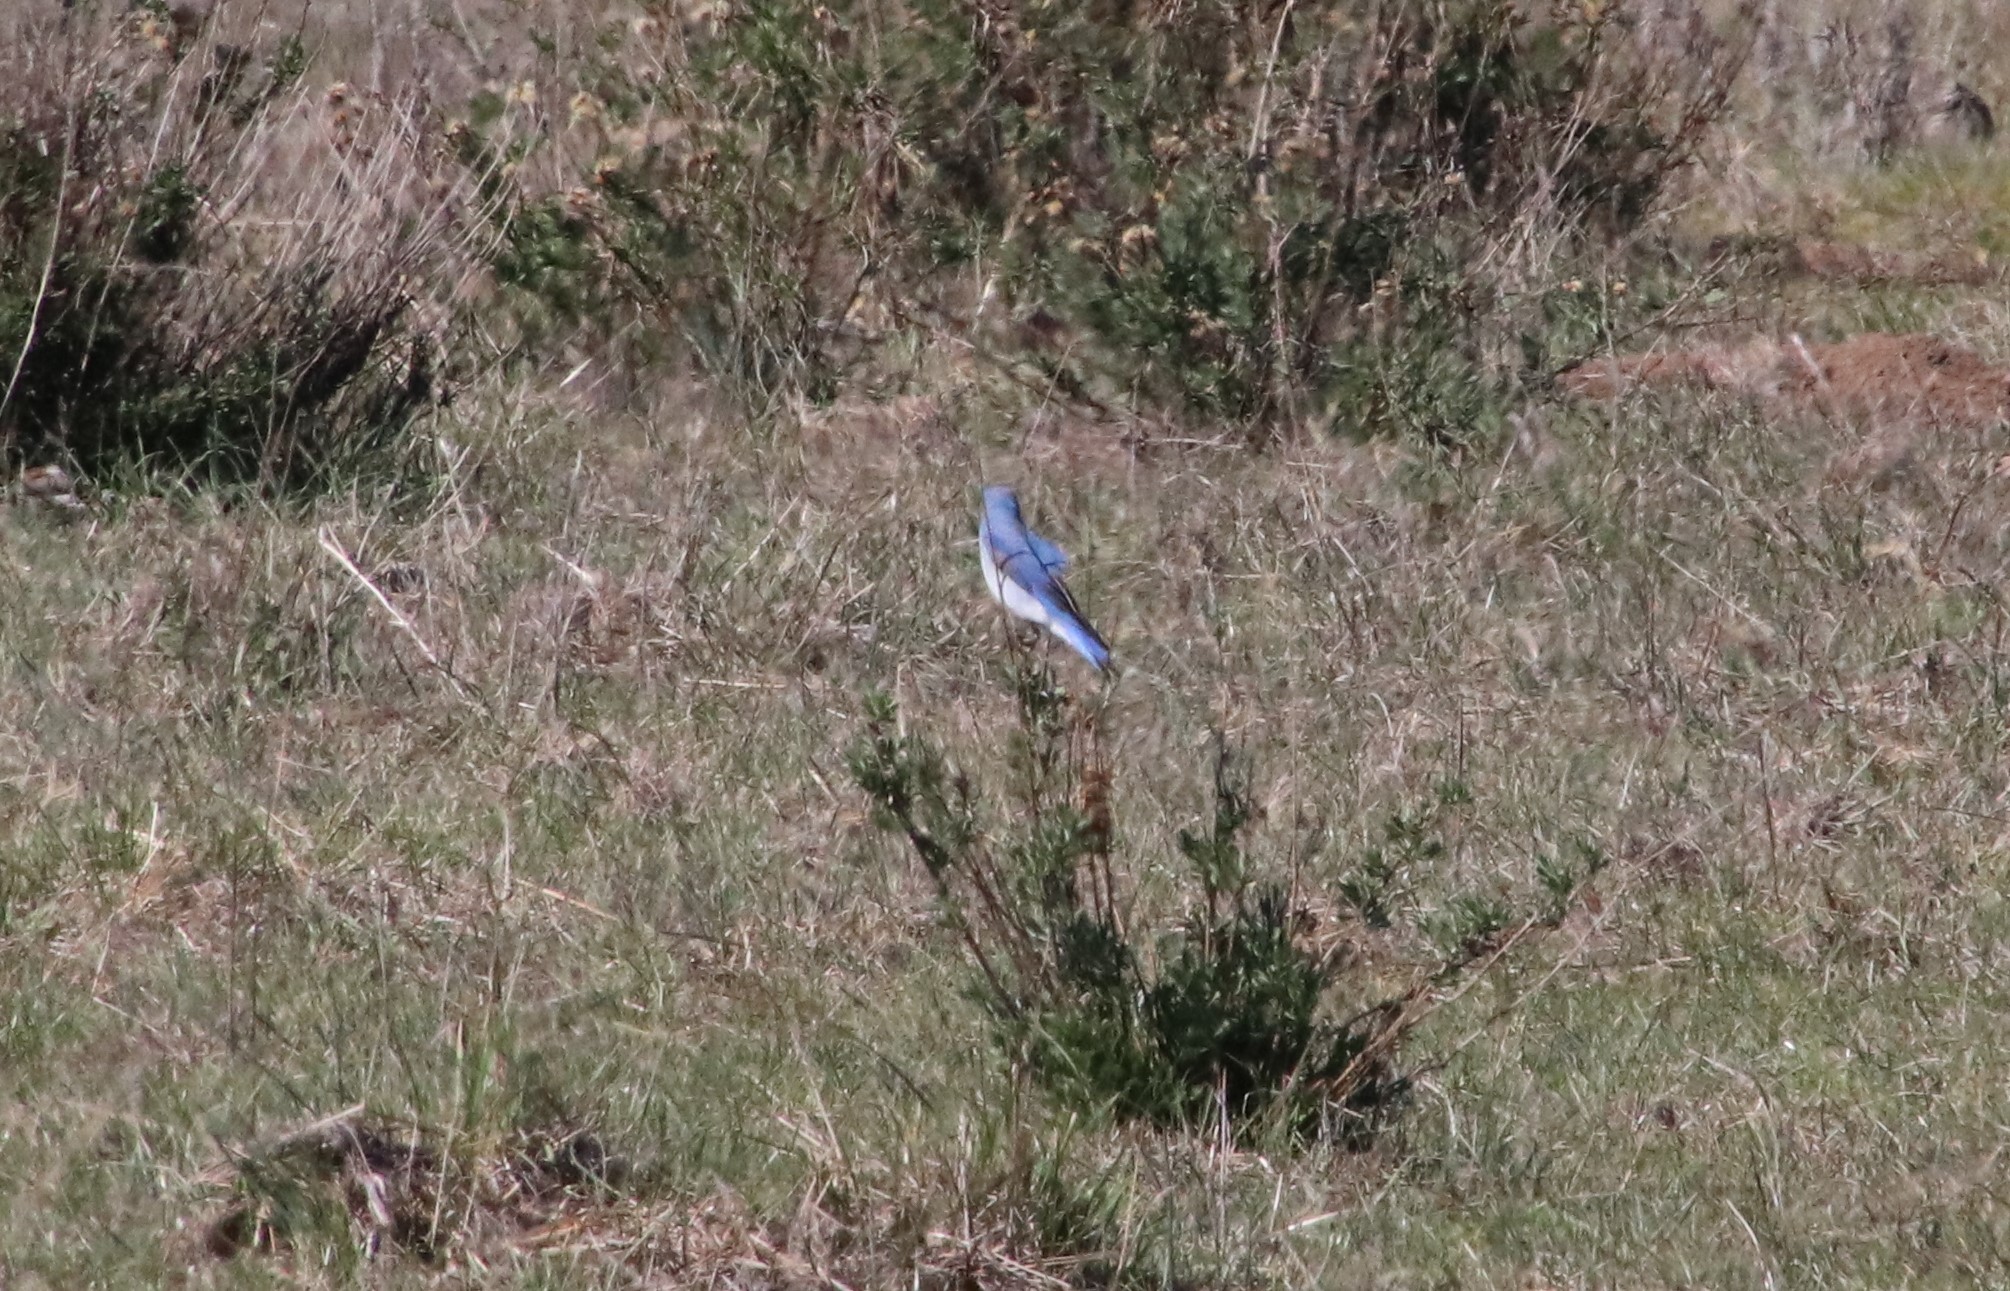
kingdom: Animalia
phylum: Chordata
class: Aves
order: Passeriformes
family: Turdidae
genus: Sialia
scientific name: Sialia currucoides
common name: Mountain bluebird
